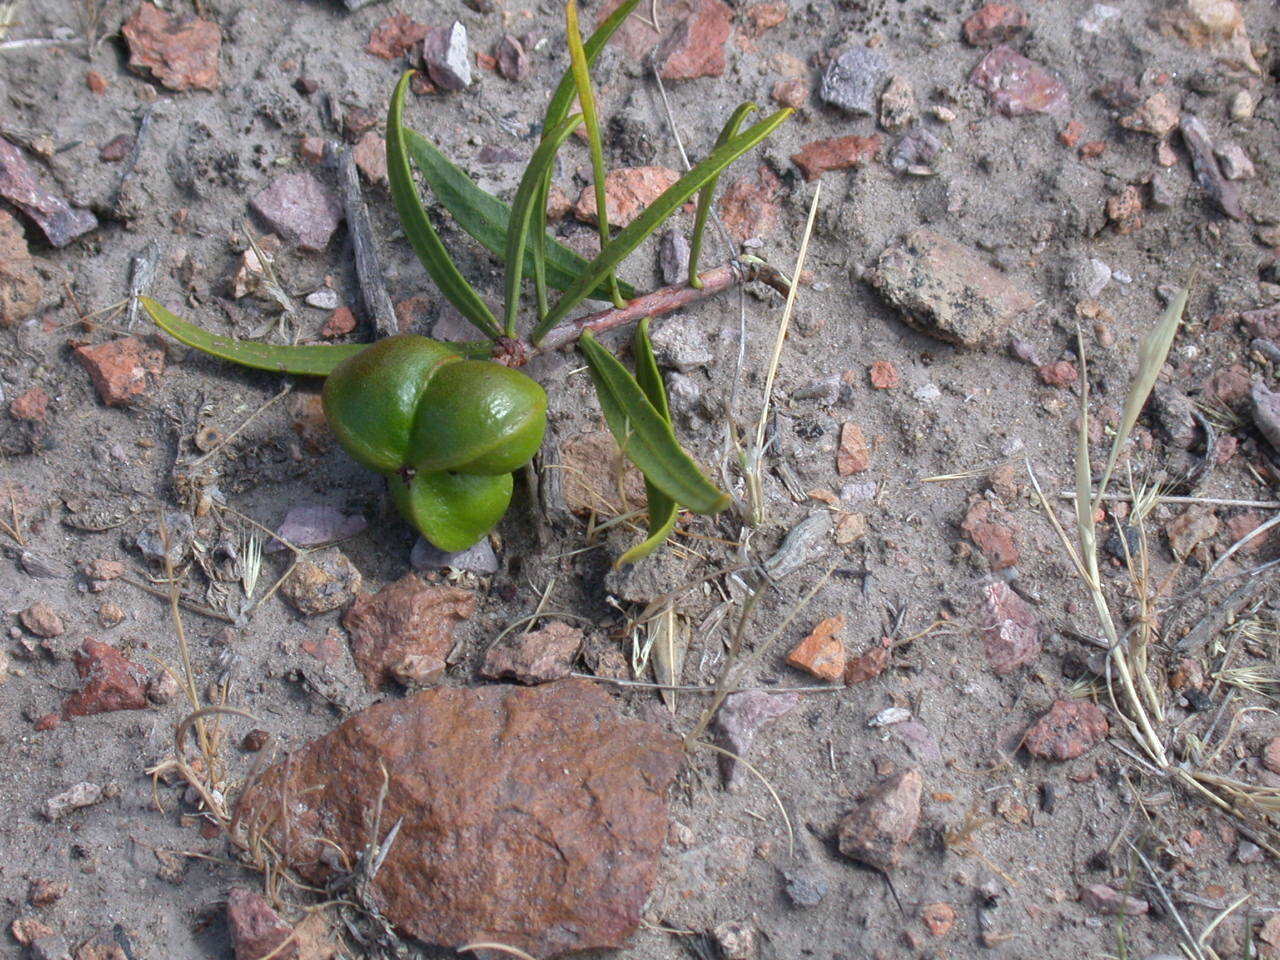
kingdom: Plantae
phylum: Tracheophyta
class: Magnoliopsida
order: Malpighiales
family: Euphorbiaceae
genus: Colliguaja
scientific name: Colliguaja integerrima
